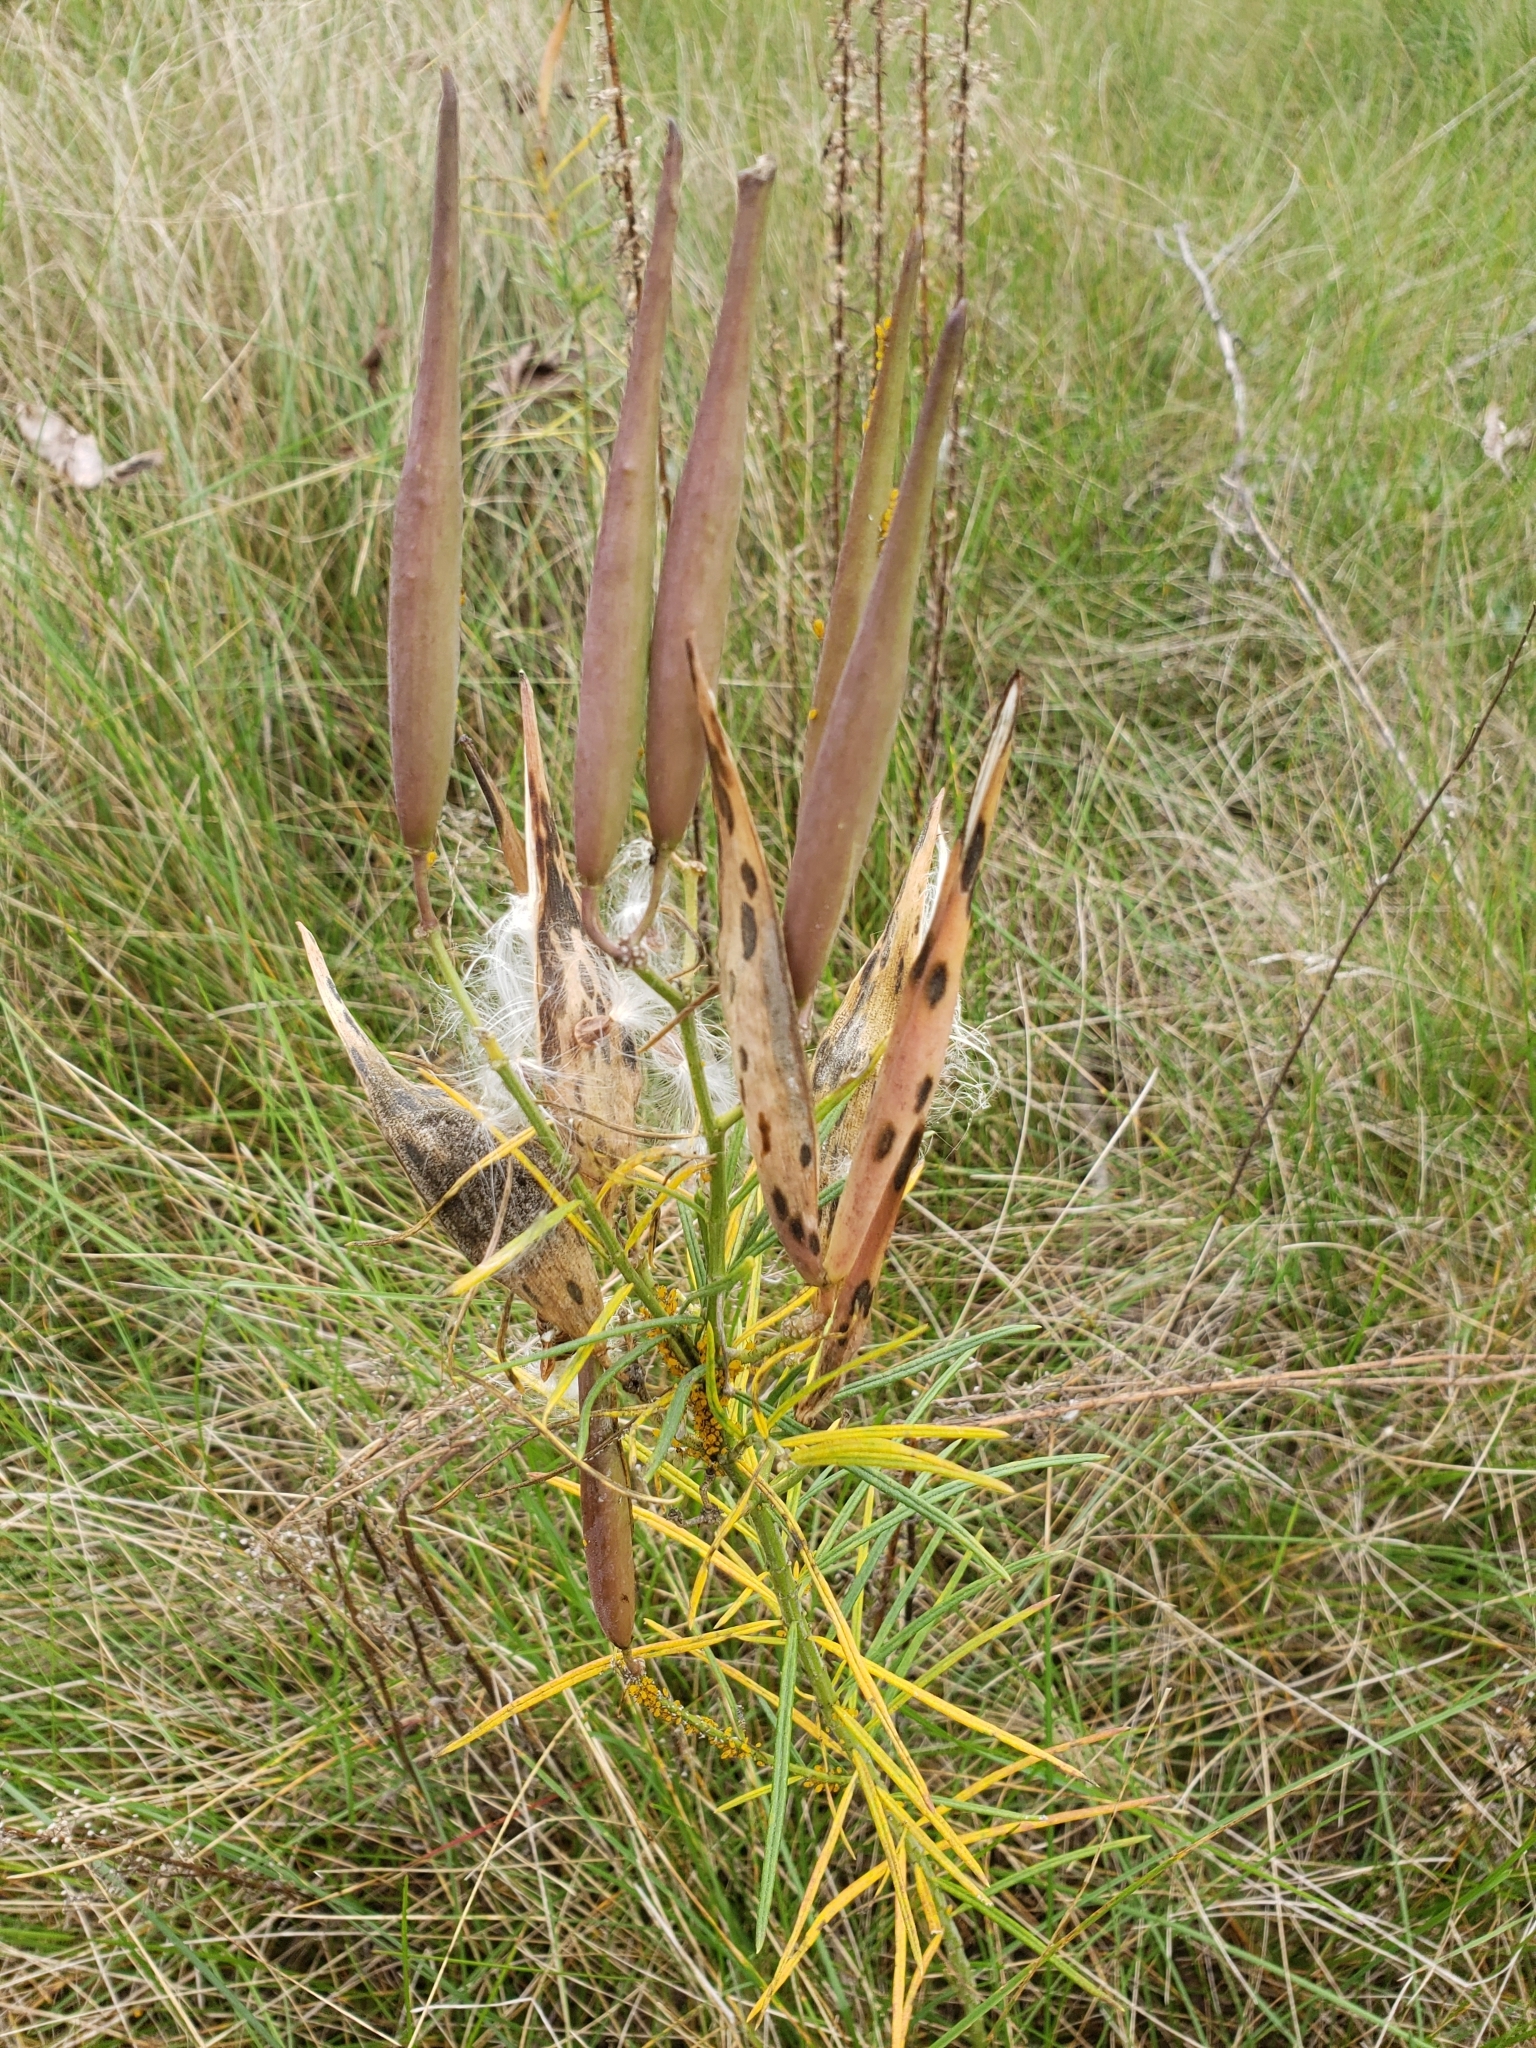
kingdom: Plantae
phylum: Tracheophyta
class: Magnoliopsida
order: Gentianales
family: Apocynaceae
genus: Asclepias
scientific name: Asclepias verticillata
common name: Eastern whorled milkweed
